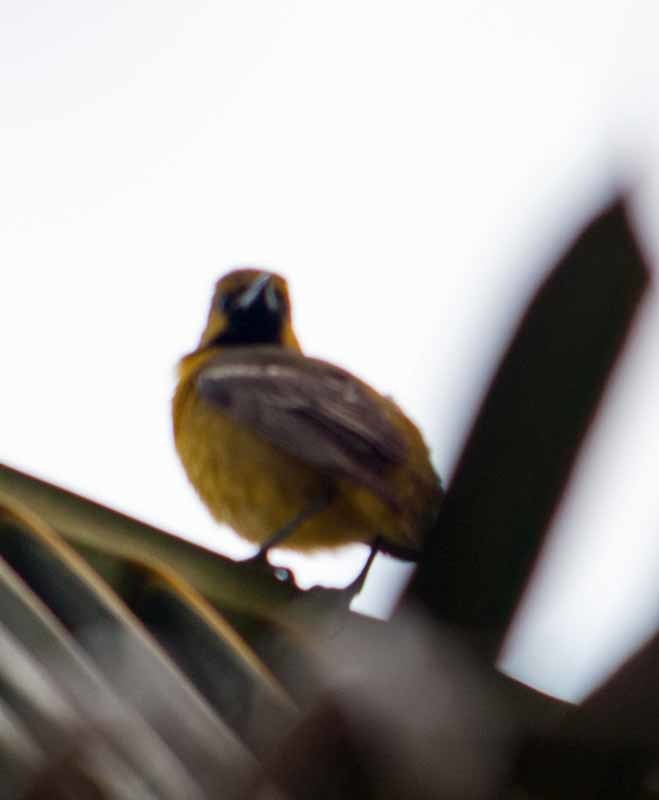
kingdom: Animalia
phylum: Chordata
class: Aves
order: Passeriformes
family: Icteridae
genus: Icterus
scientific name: Icterus spurius
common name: Orchard oriole
